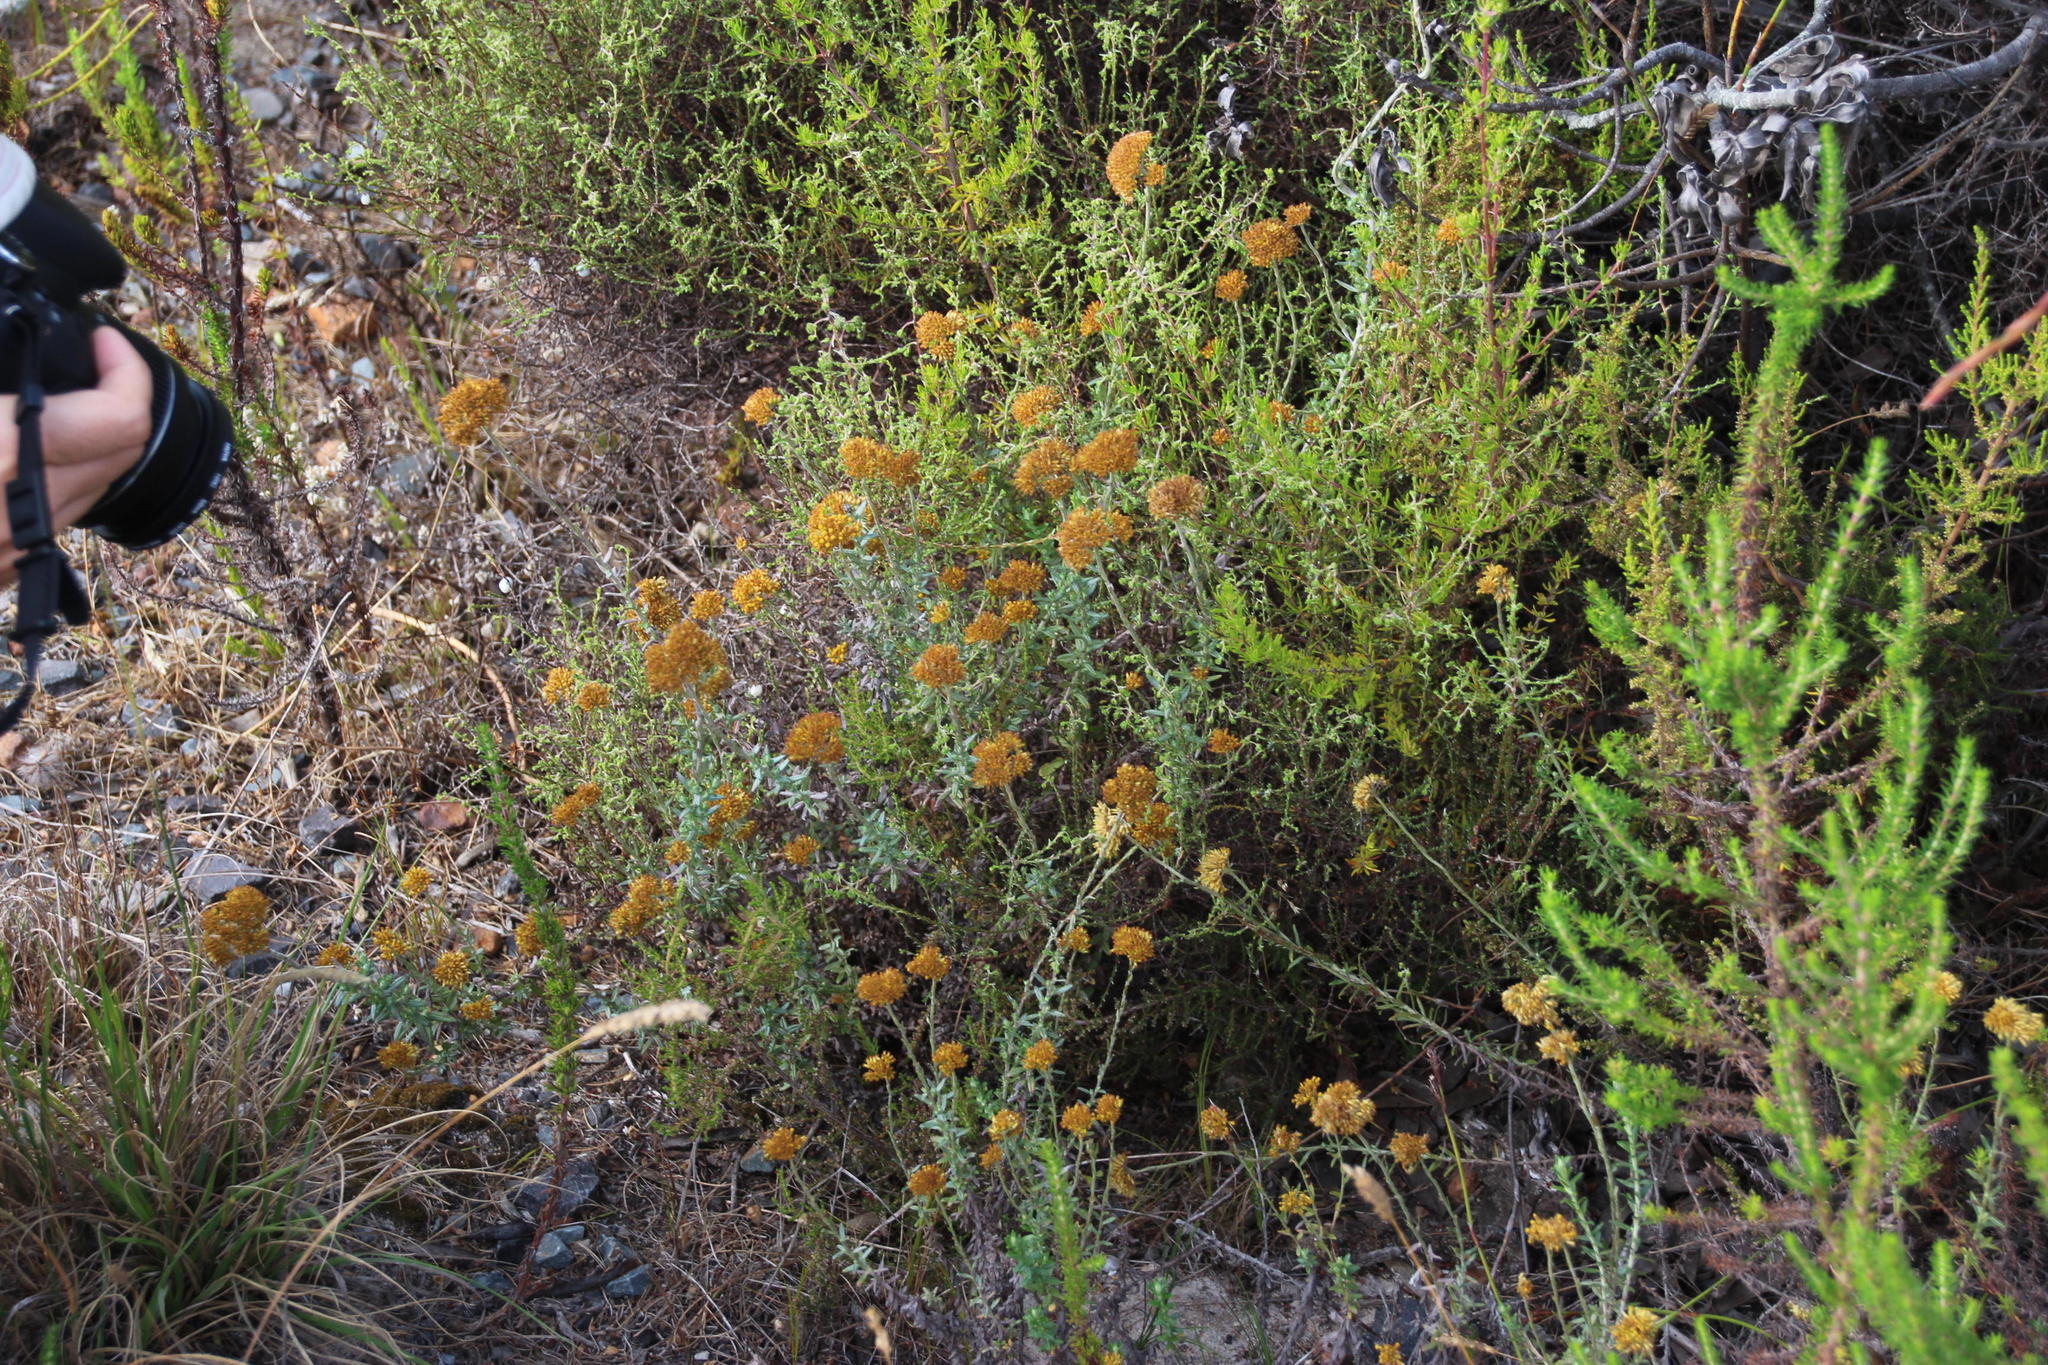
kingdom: Plantae
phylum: Tracheophyta
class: Magnoliopsida
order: Asterales
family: Asteraceae
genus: Helichrysum
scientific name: Helichrysum cymosum
